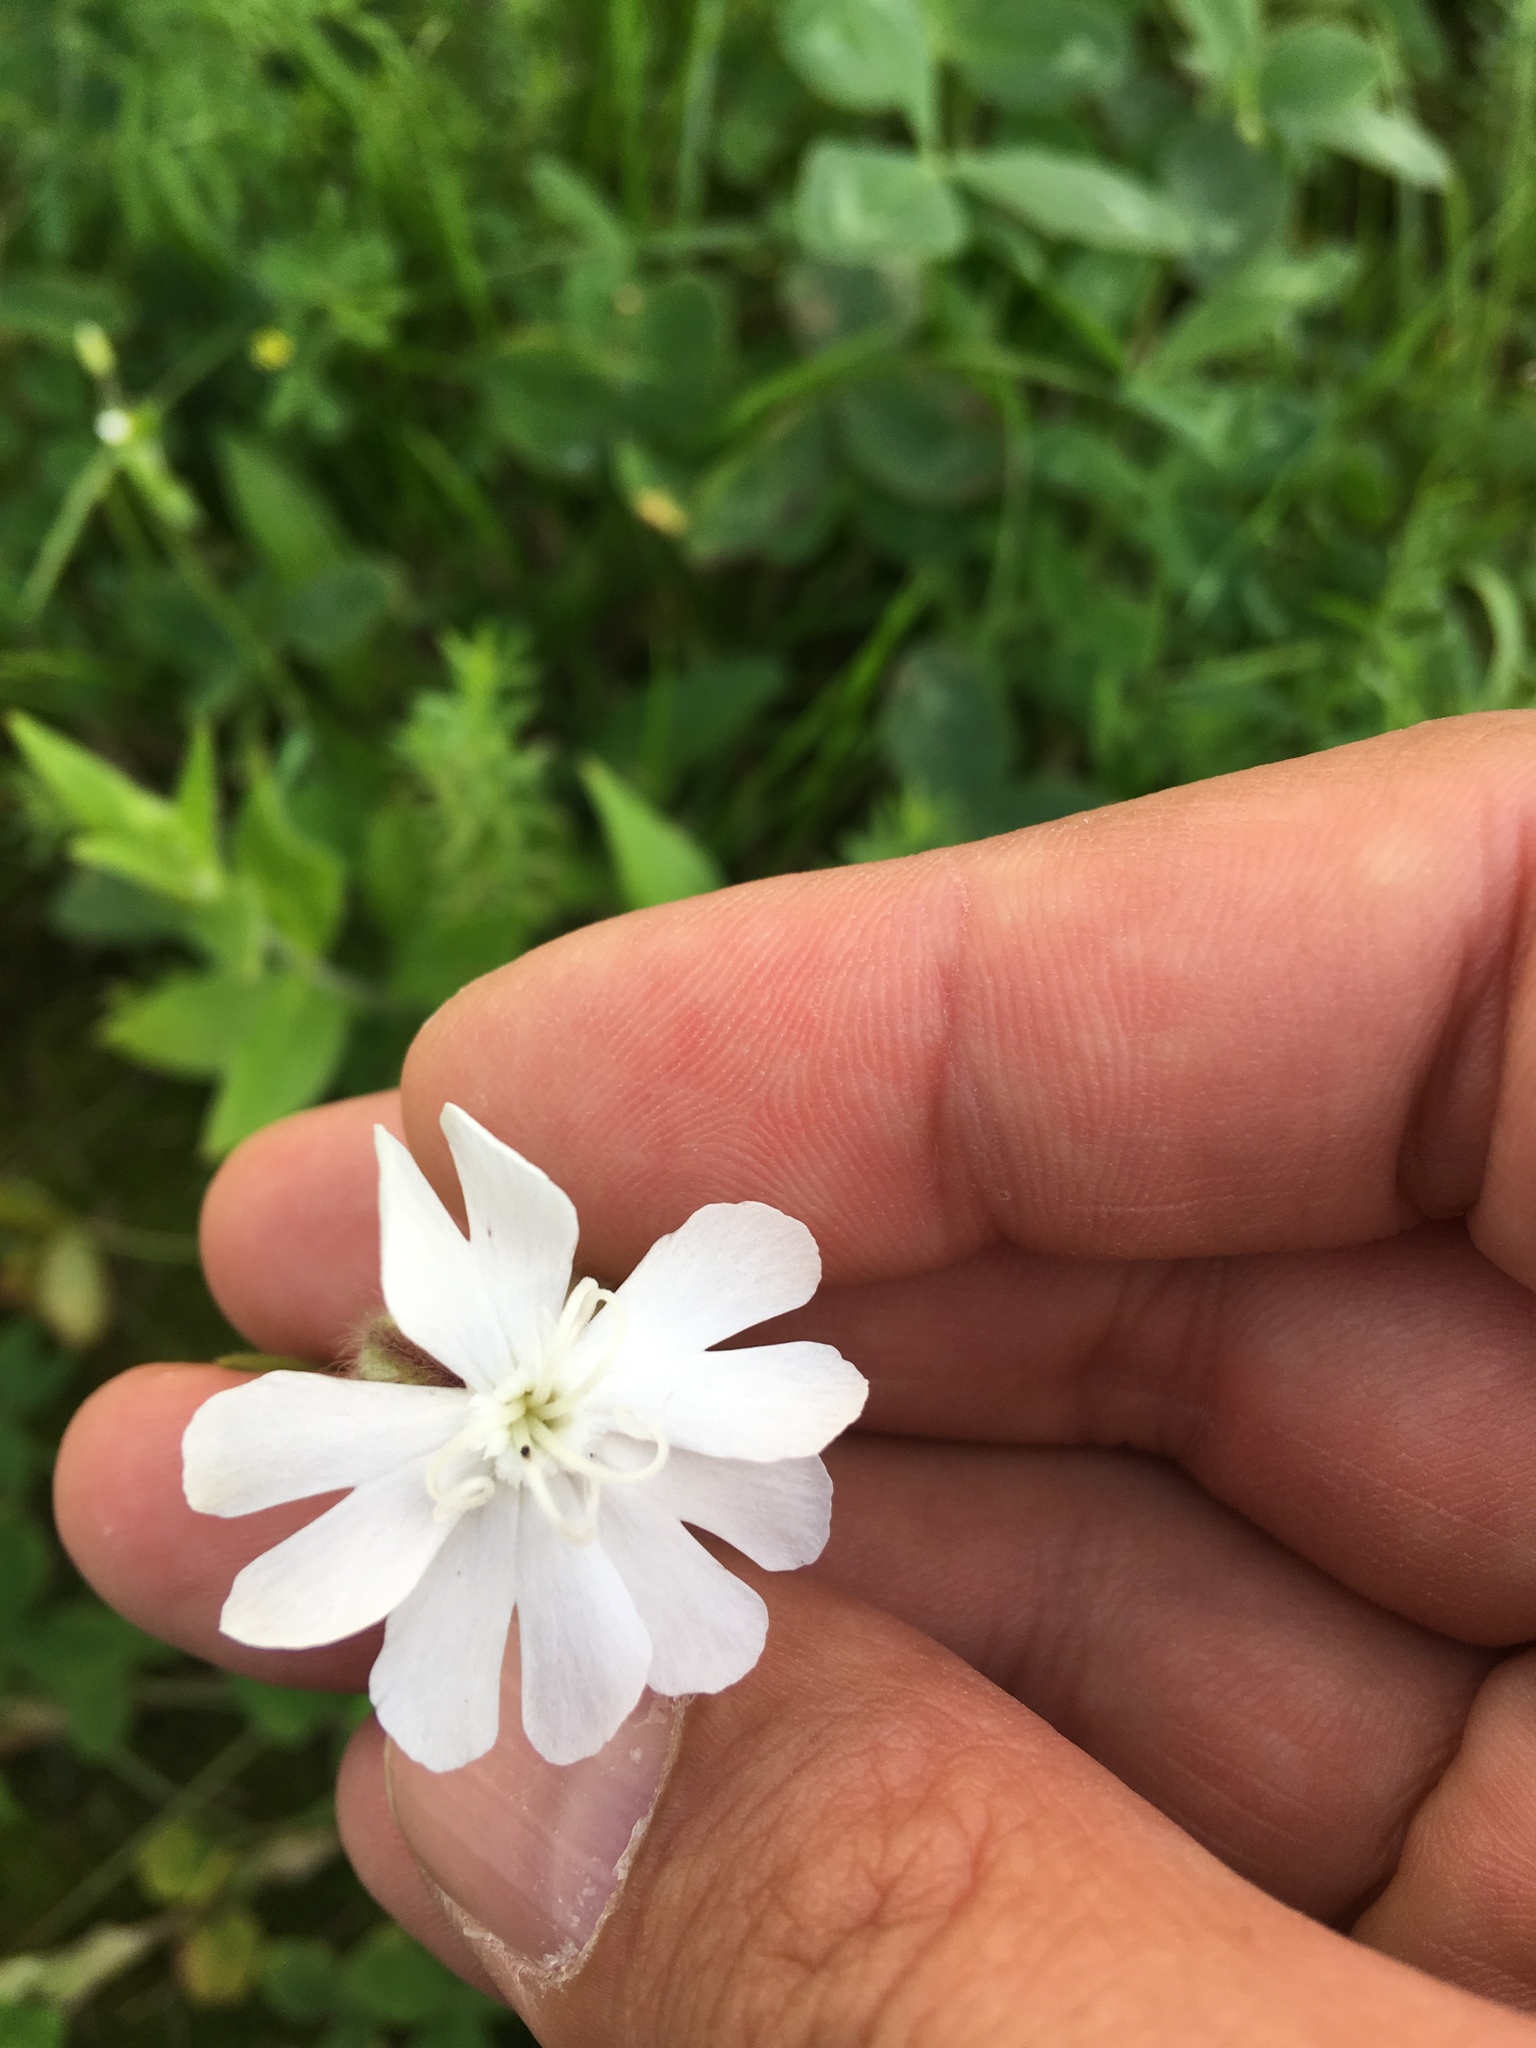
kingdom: Plantae
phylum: Tracheophyta
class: Magnoliopsida
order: Caryophyllales
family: Caryophyllaceae
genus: Silene
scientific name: Silene latifolia
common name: White campion
